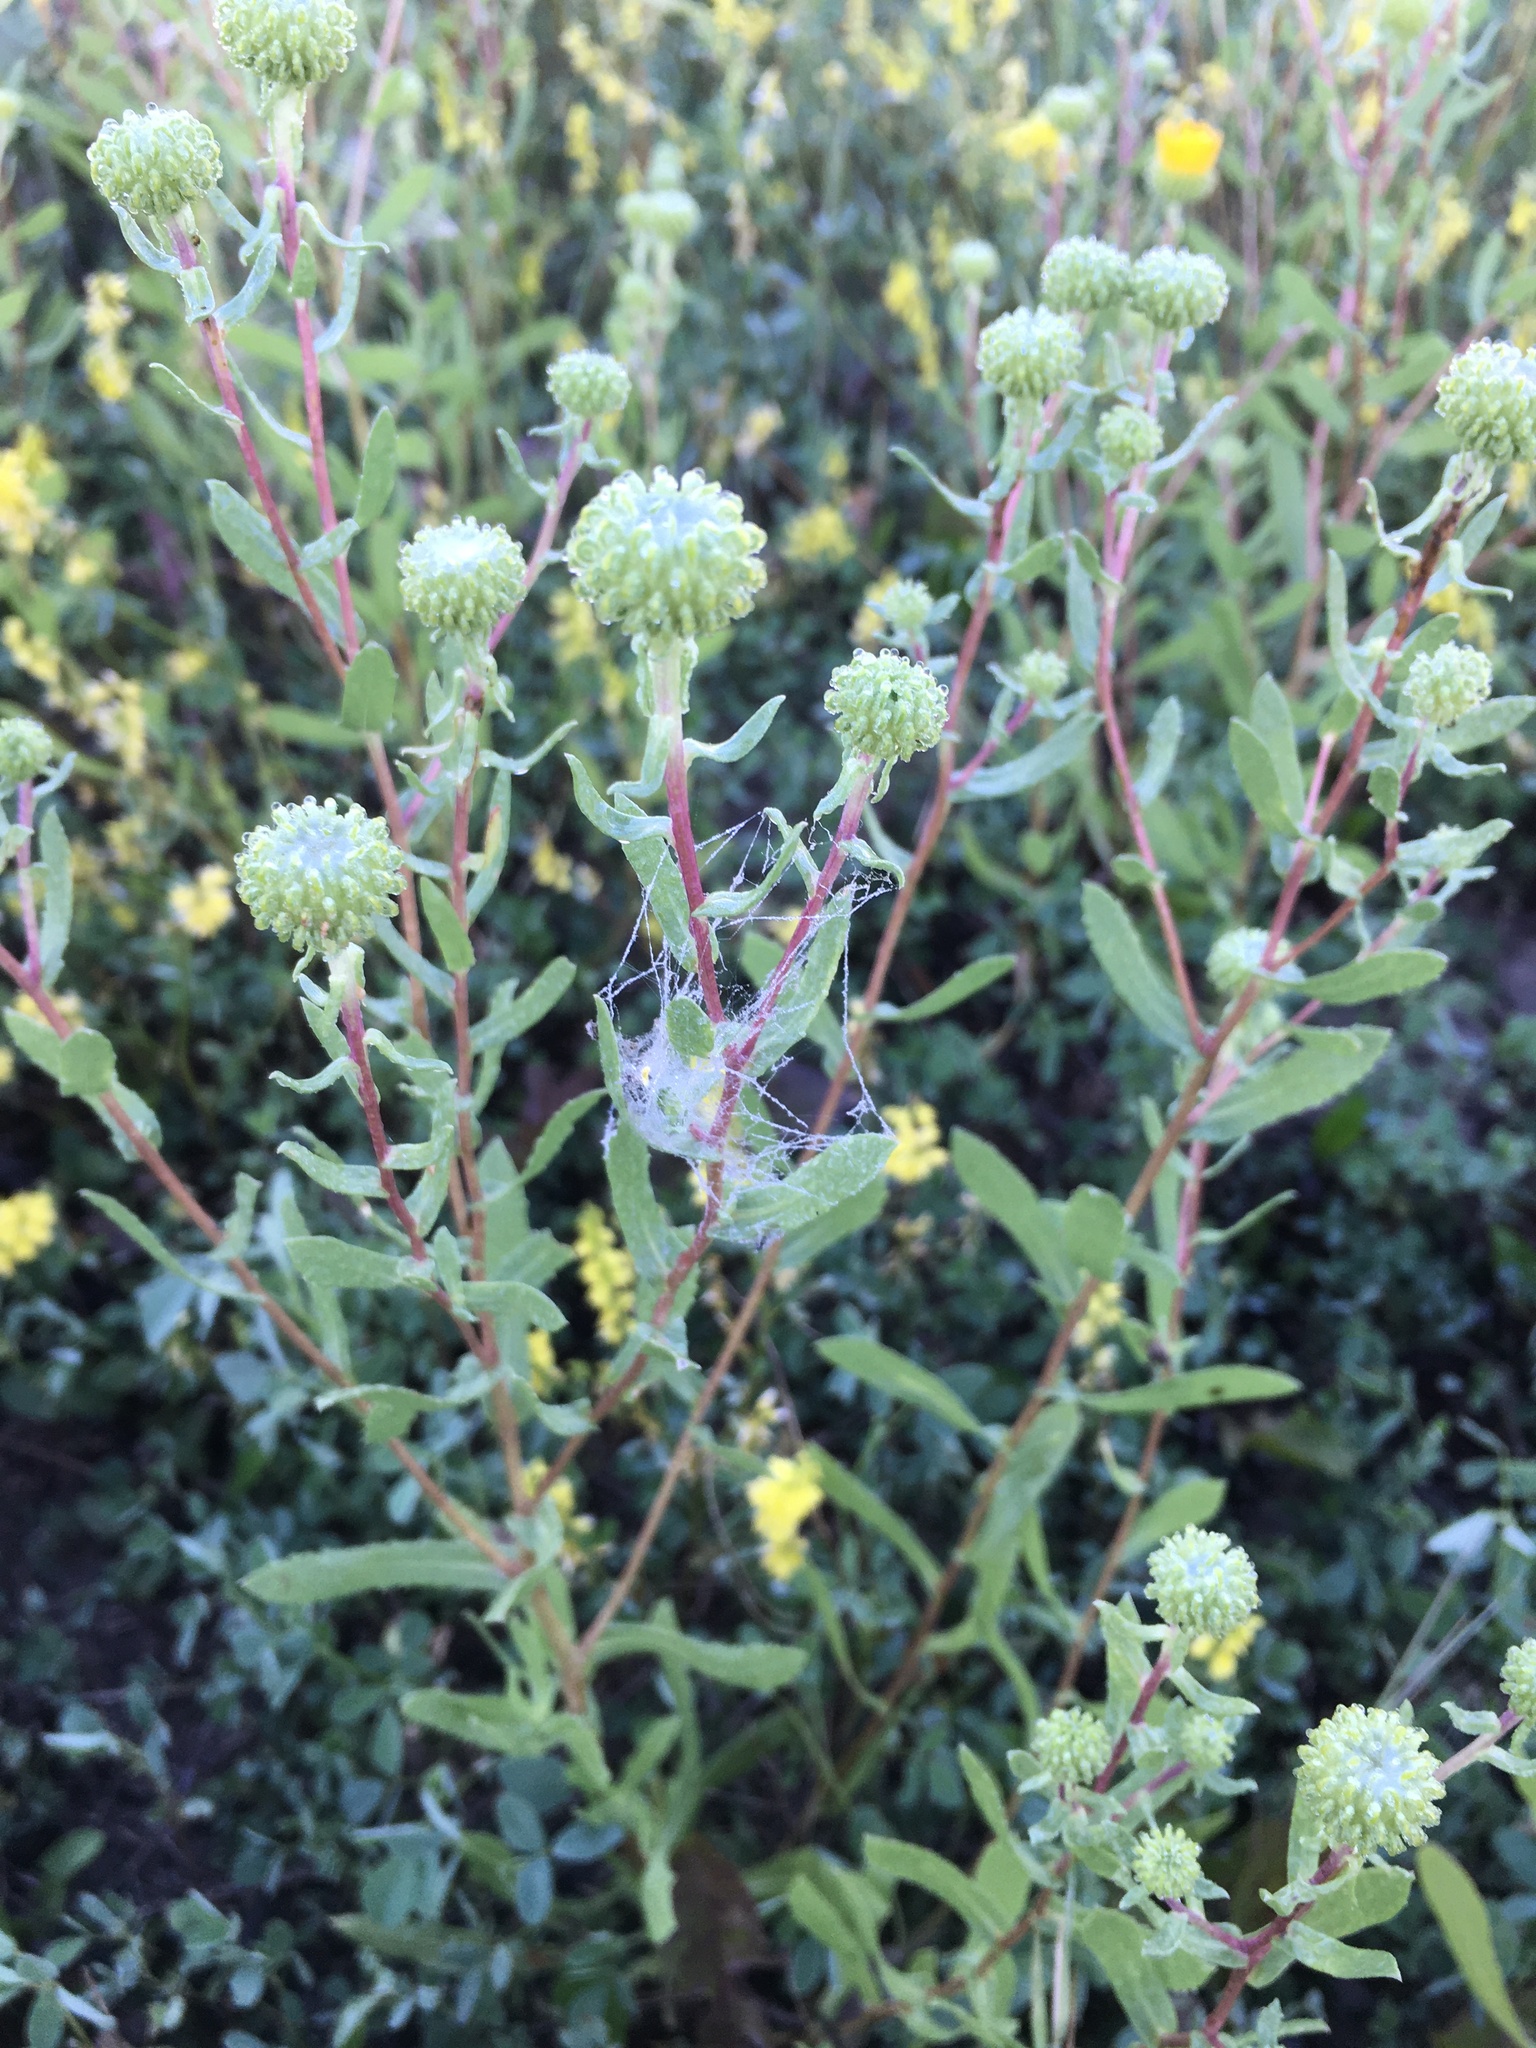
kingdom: Plantae
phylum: Tracheophyta
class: Magnoliopsida
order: Asterales
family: Asteraceae
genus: Grindelia
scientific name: Grindelia squarrosa
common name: Curly-cup gumweed
